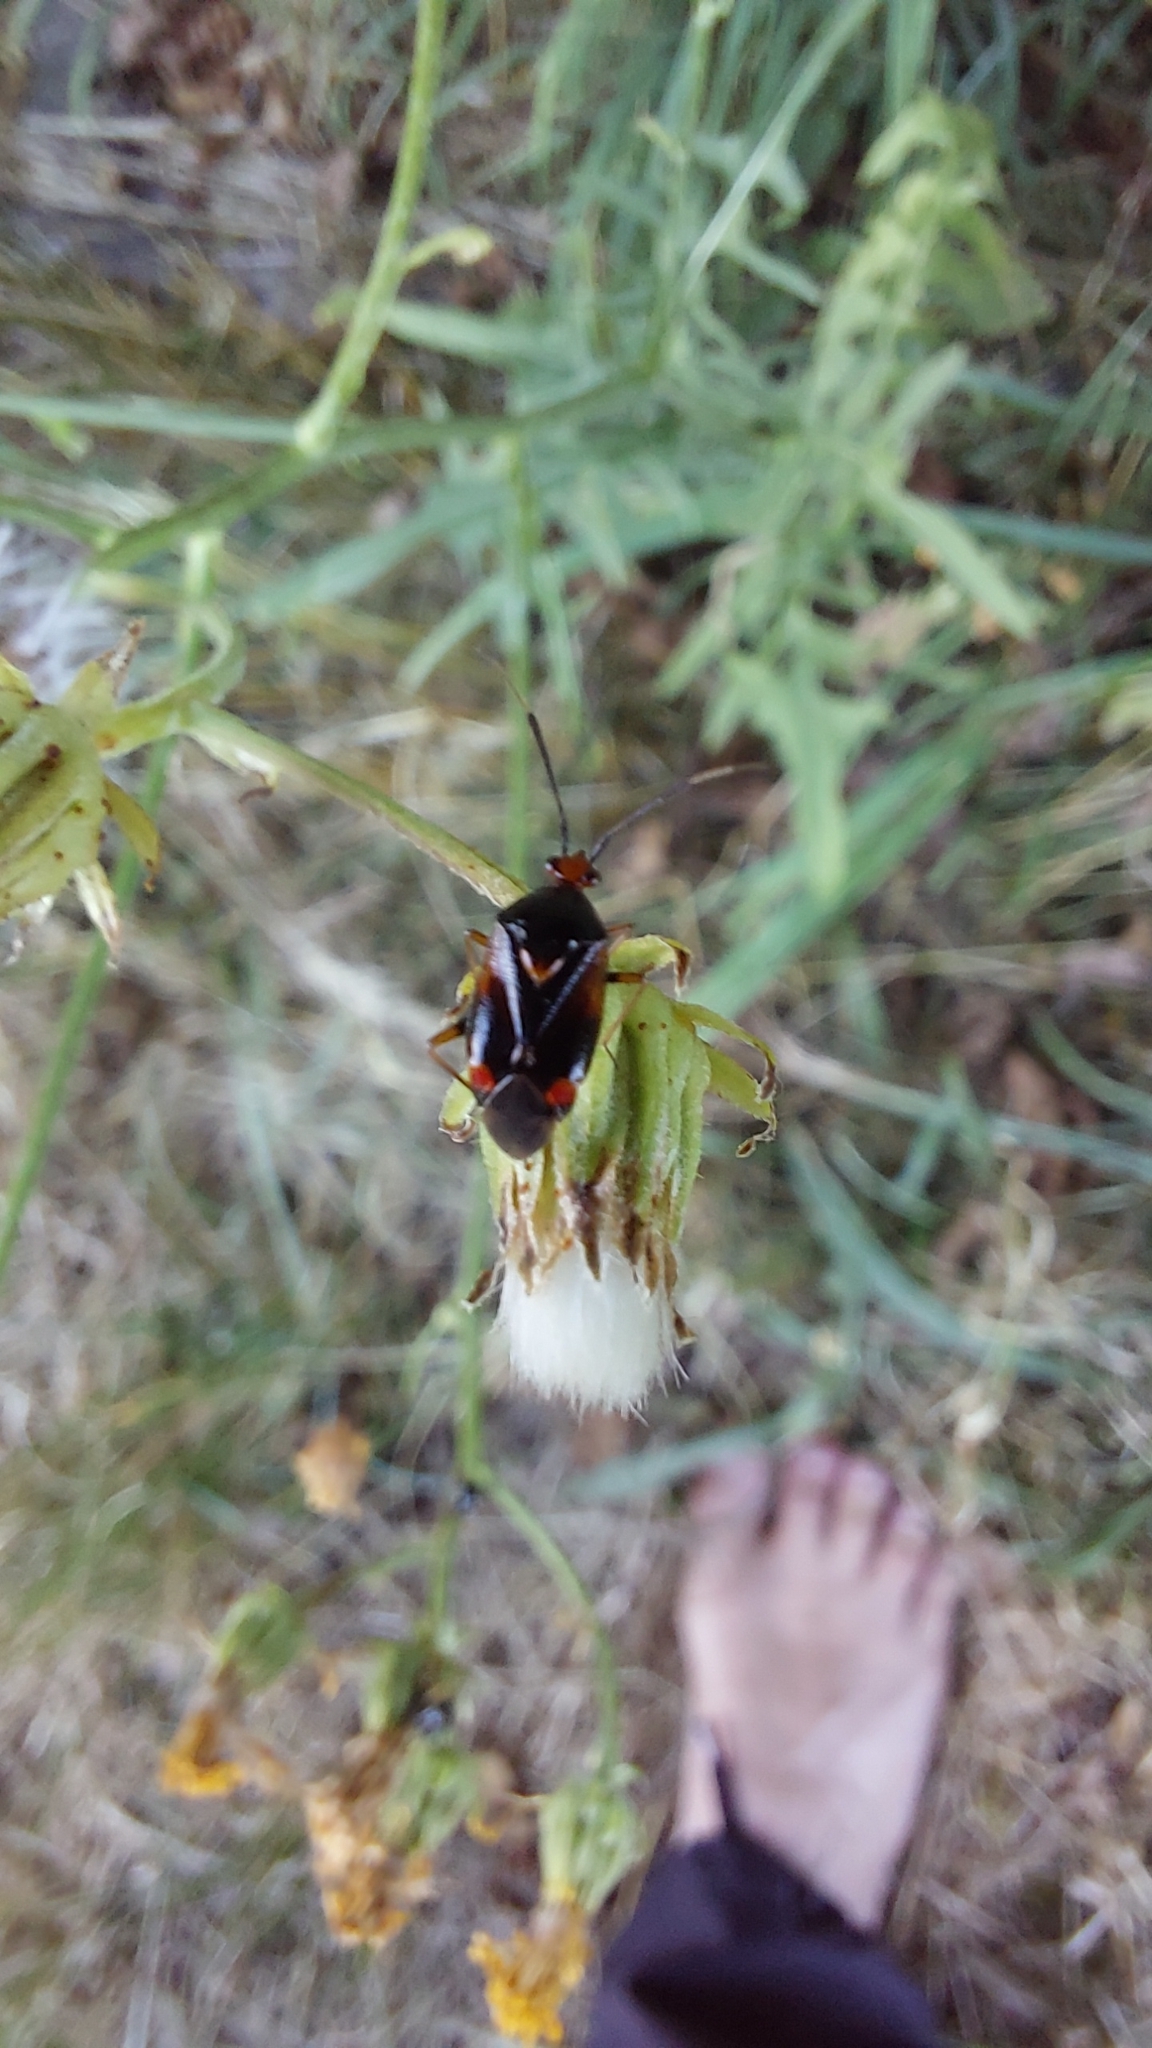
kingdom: Animalia
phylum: Arthropoda
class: Insecta
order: Hemiptera
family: Miridae
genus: Deraeocoris
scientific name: Deraeocoris ruber
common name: Plant bug
